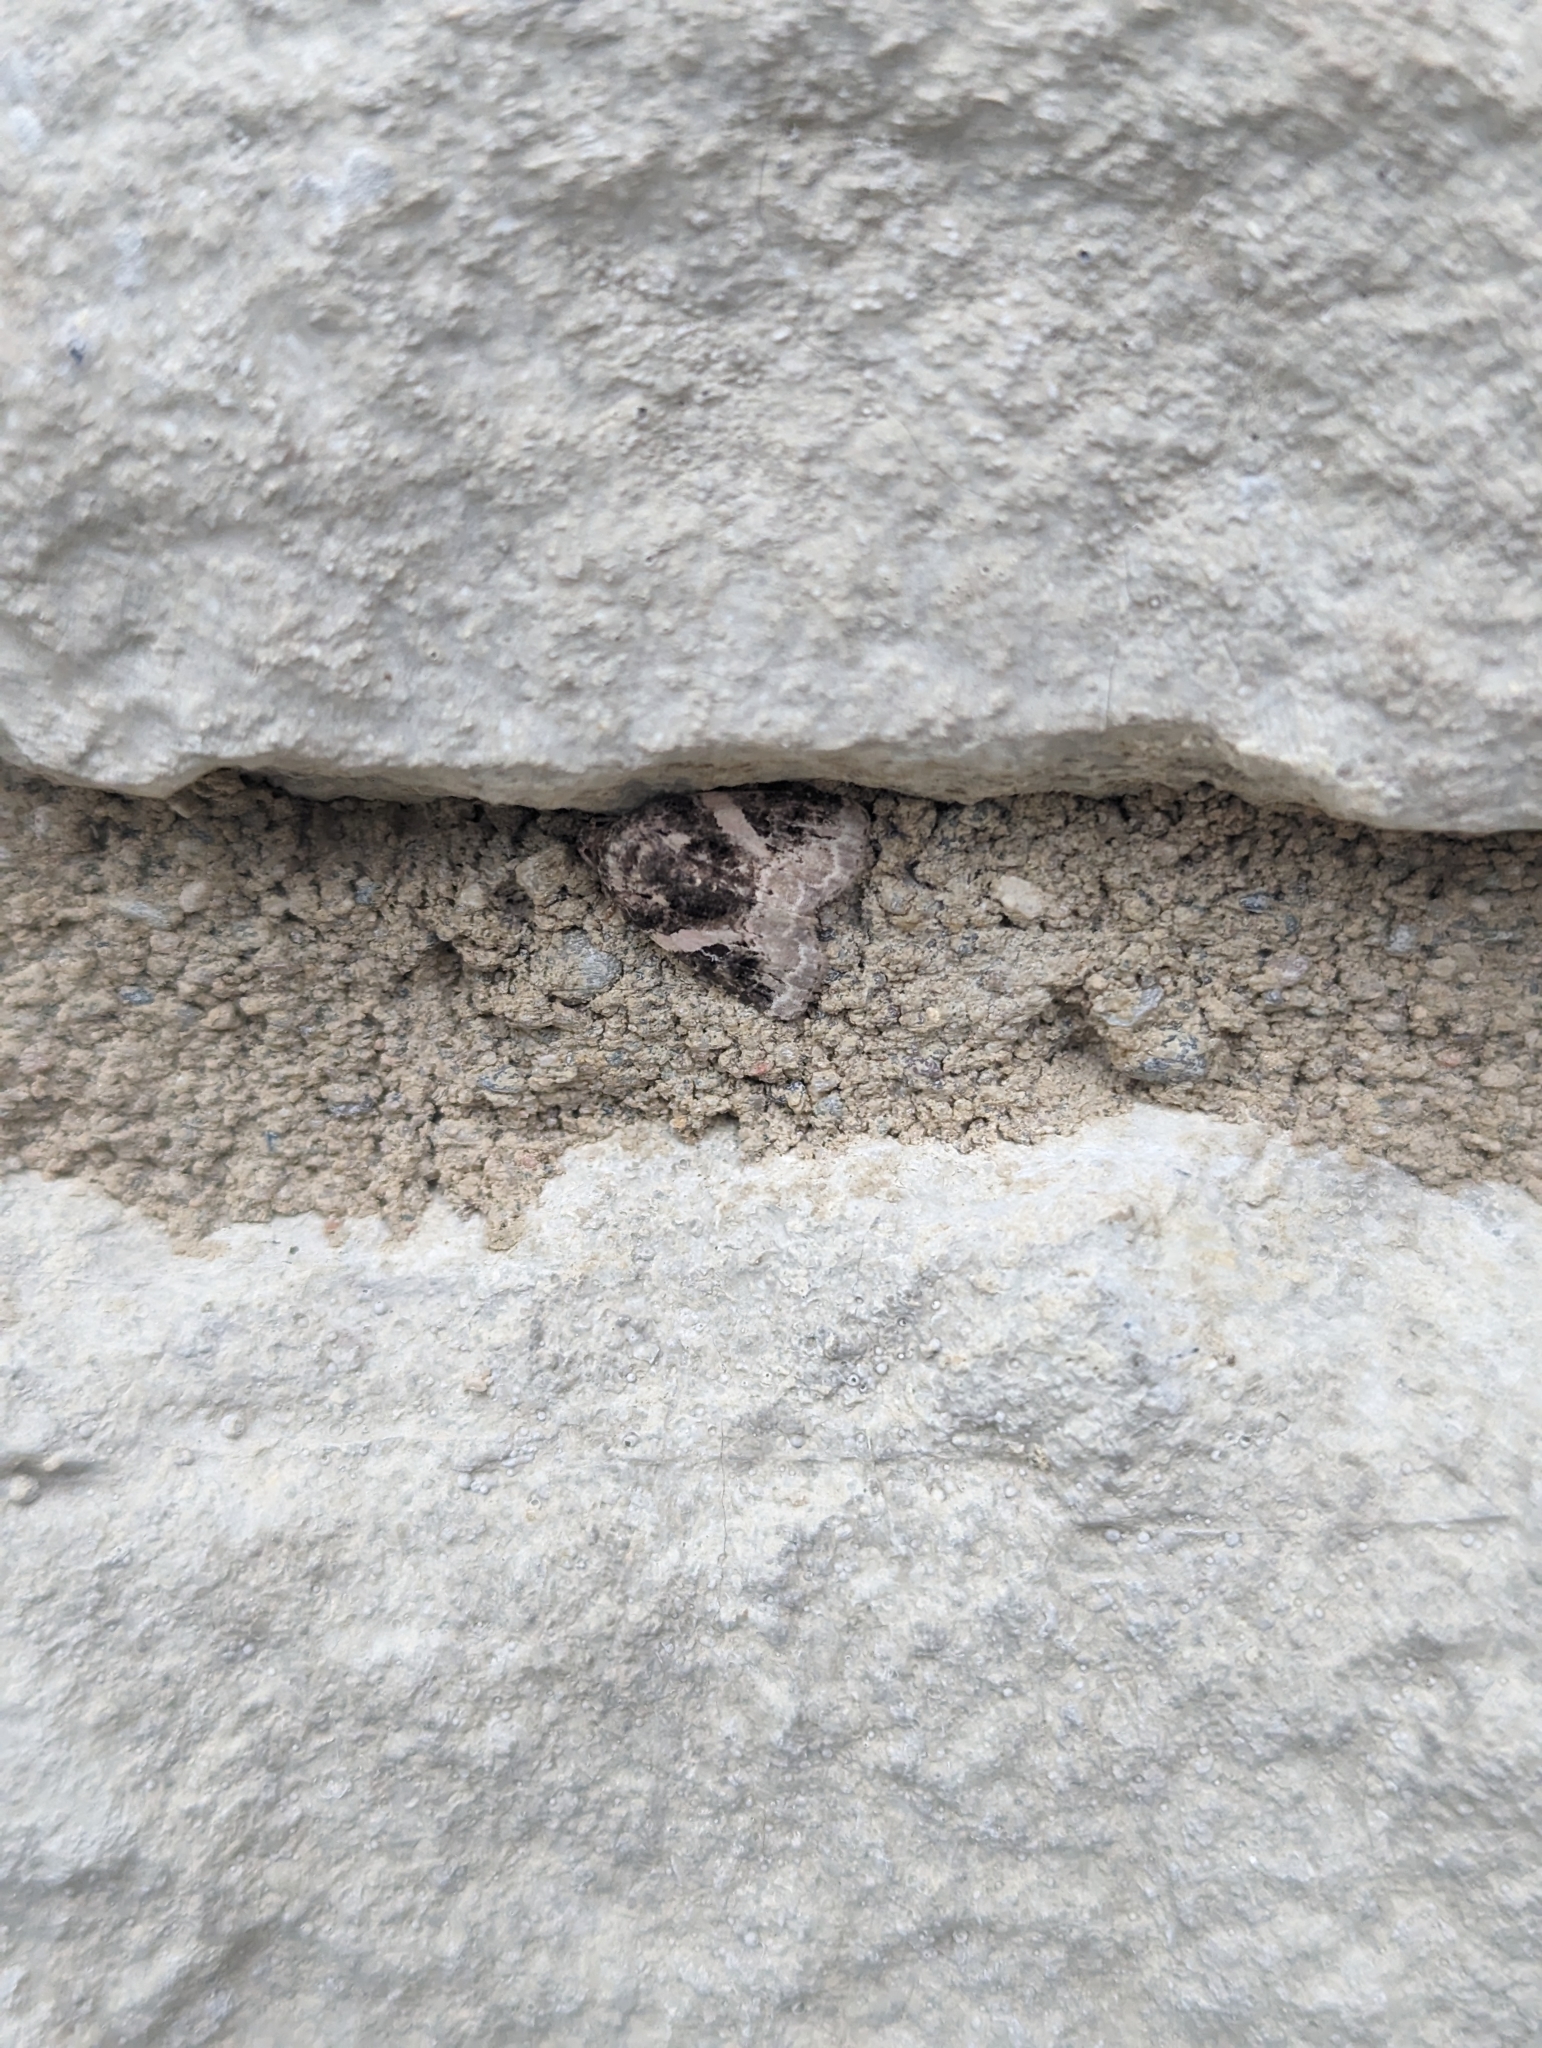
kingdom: Animalia
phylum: Arthropoda
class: Insecta
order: Lepidoptera
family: Noctuidae
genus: Pseudeustrotia
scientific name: Pseudeustrotia carneola
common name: Pink-barred lithacodia moth
